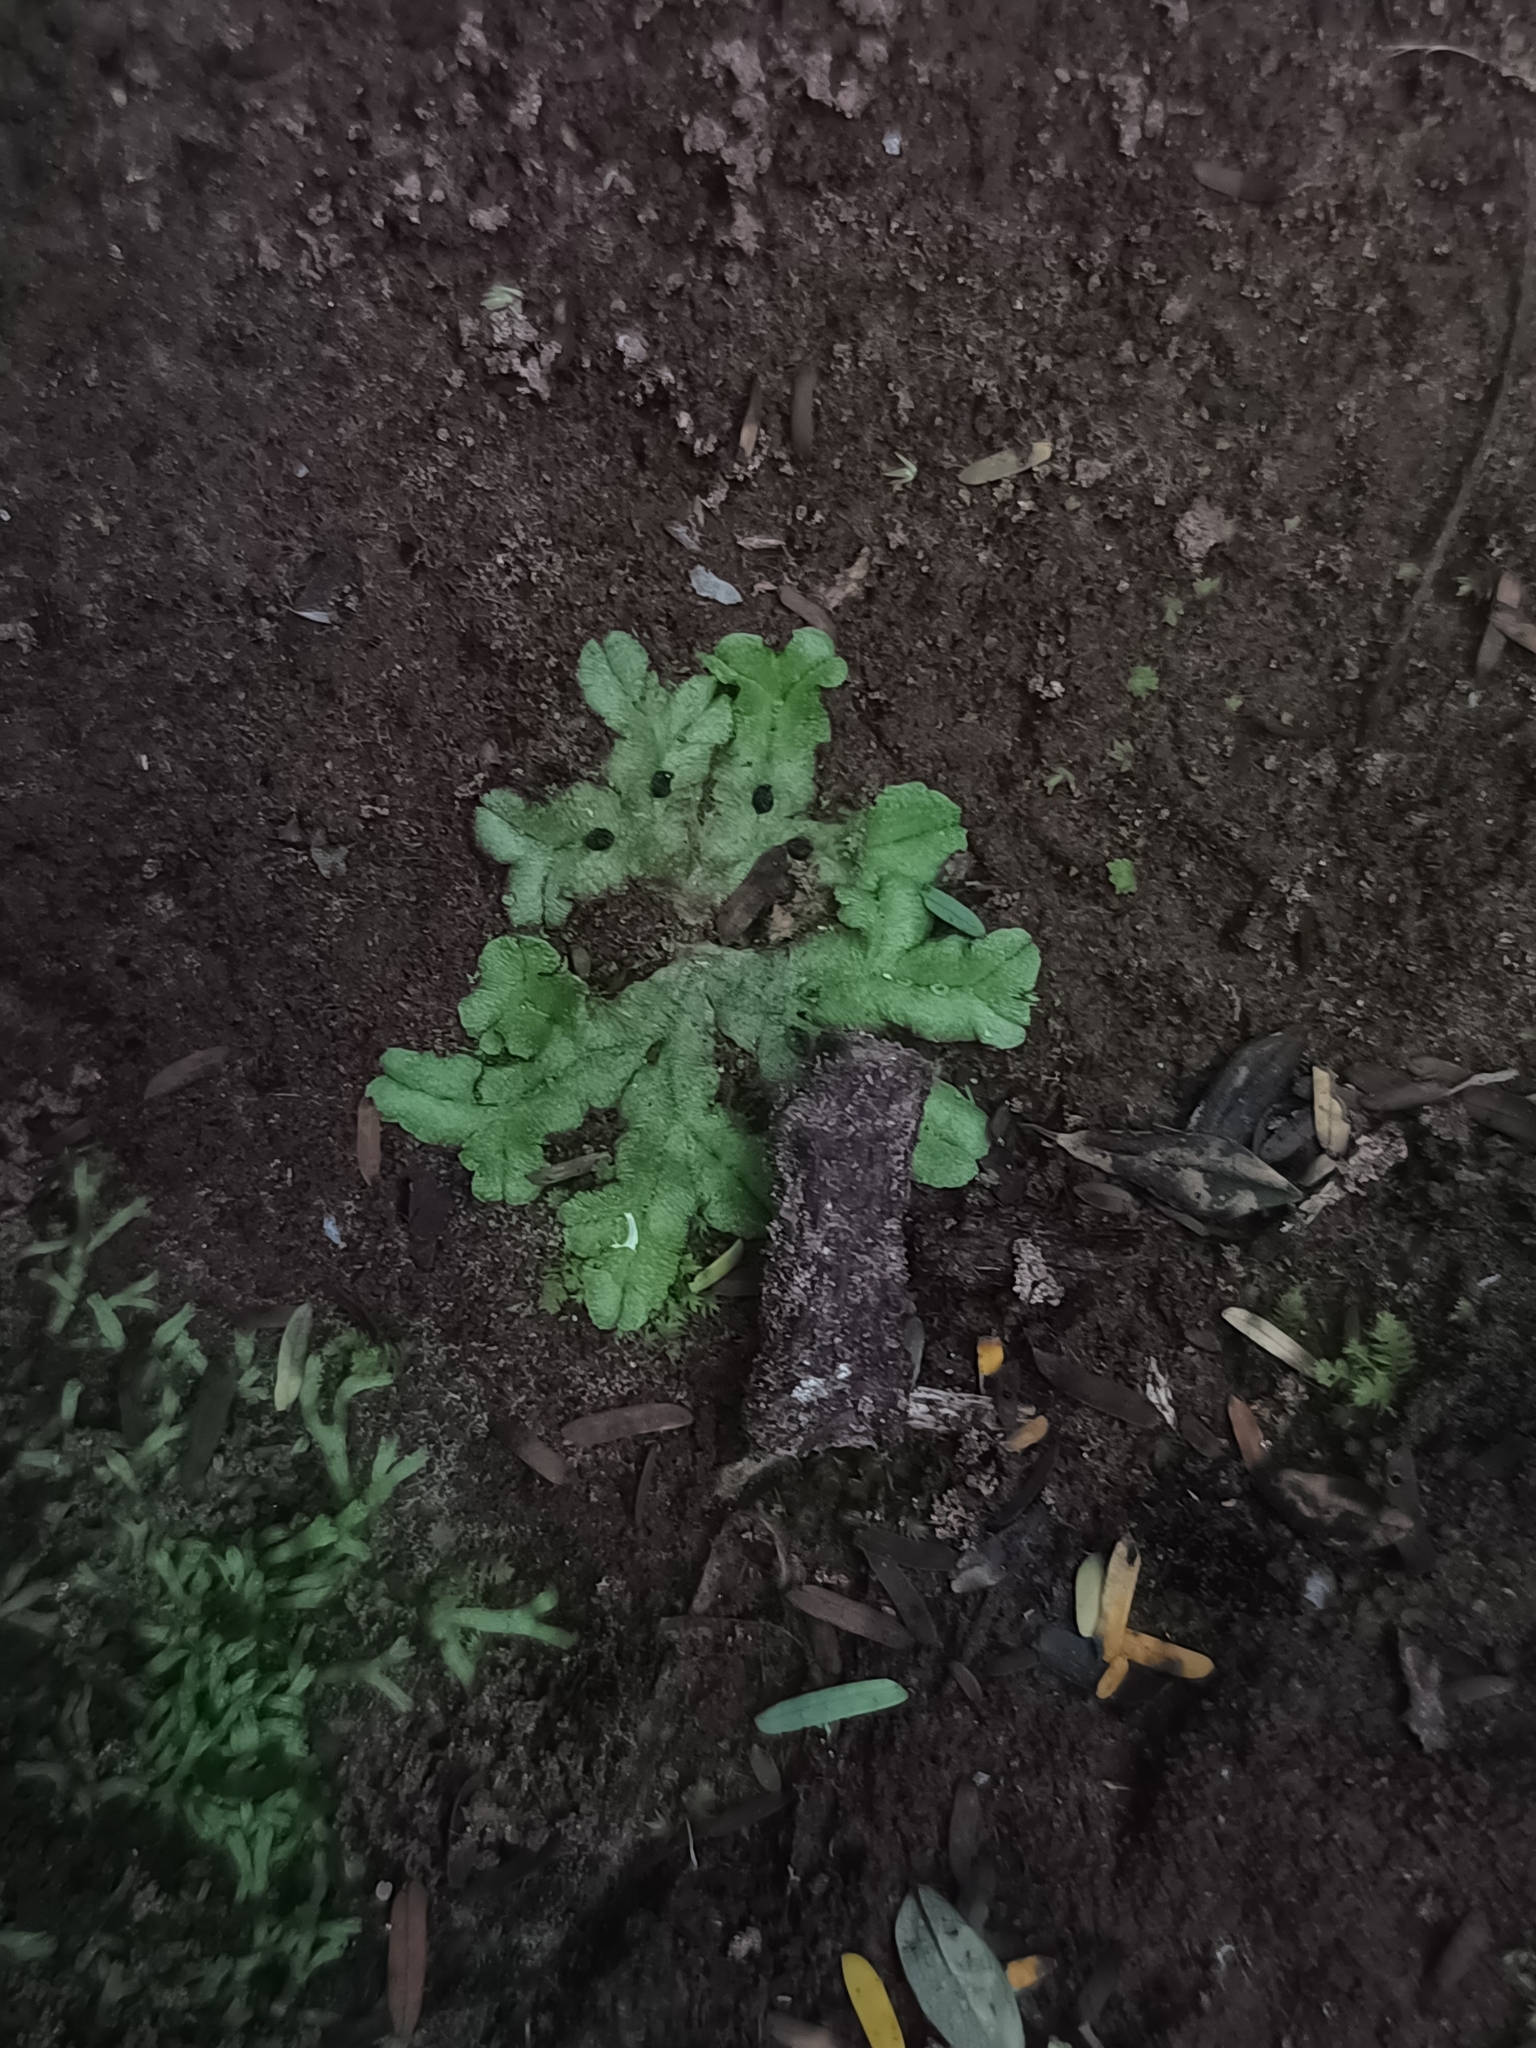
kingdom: Plantae
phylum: Marchantiophyta
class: Marchantiopsida
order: Marchantiales
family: Aytoniaceae
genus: Cryptomitrium
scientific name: Cryptomitrium tenerum
